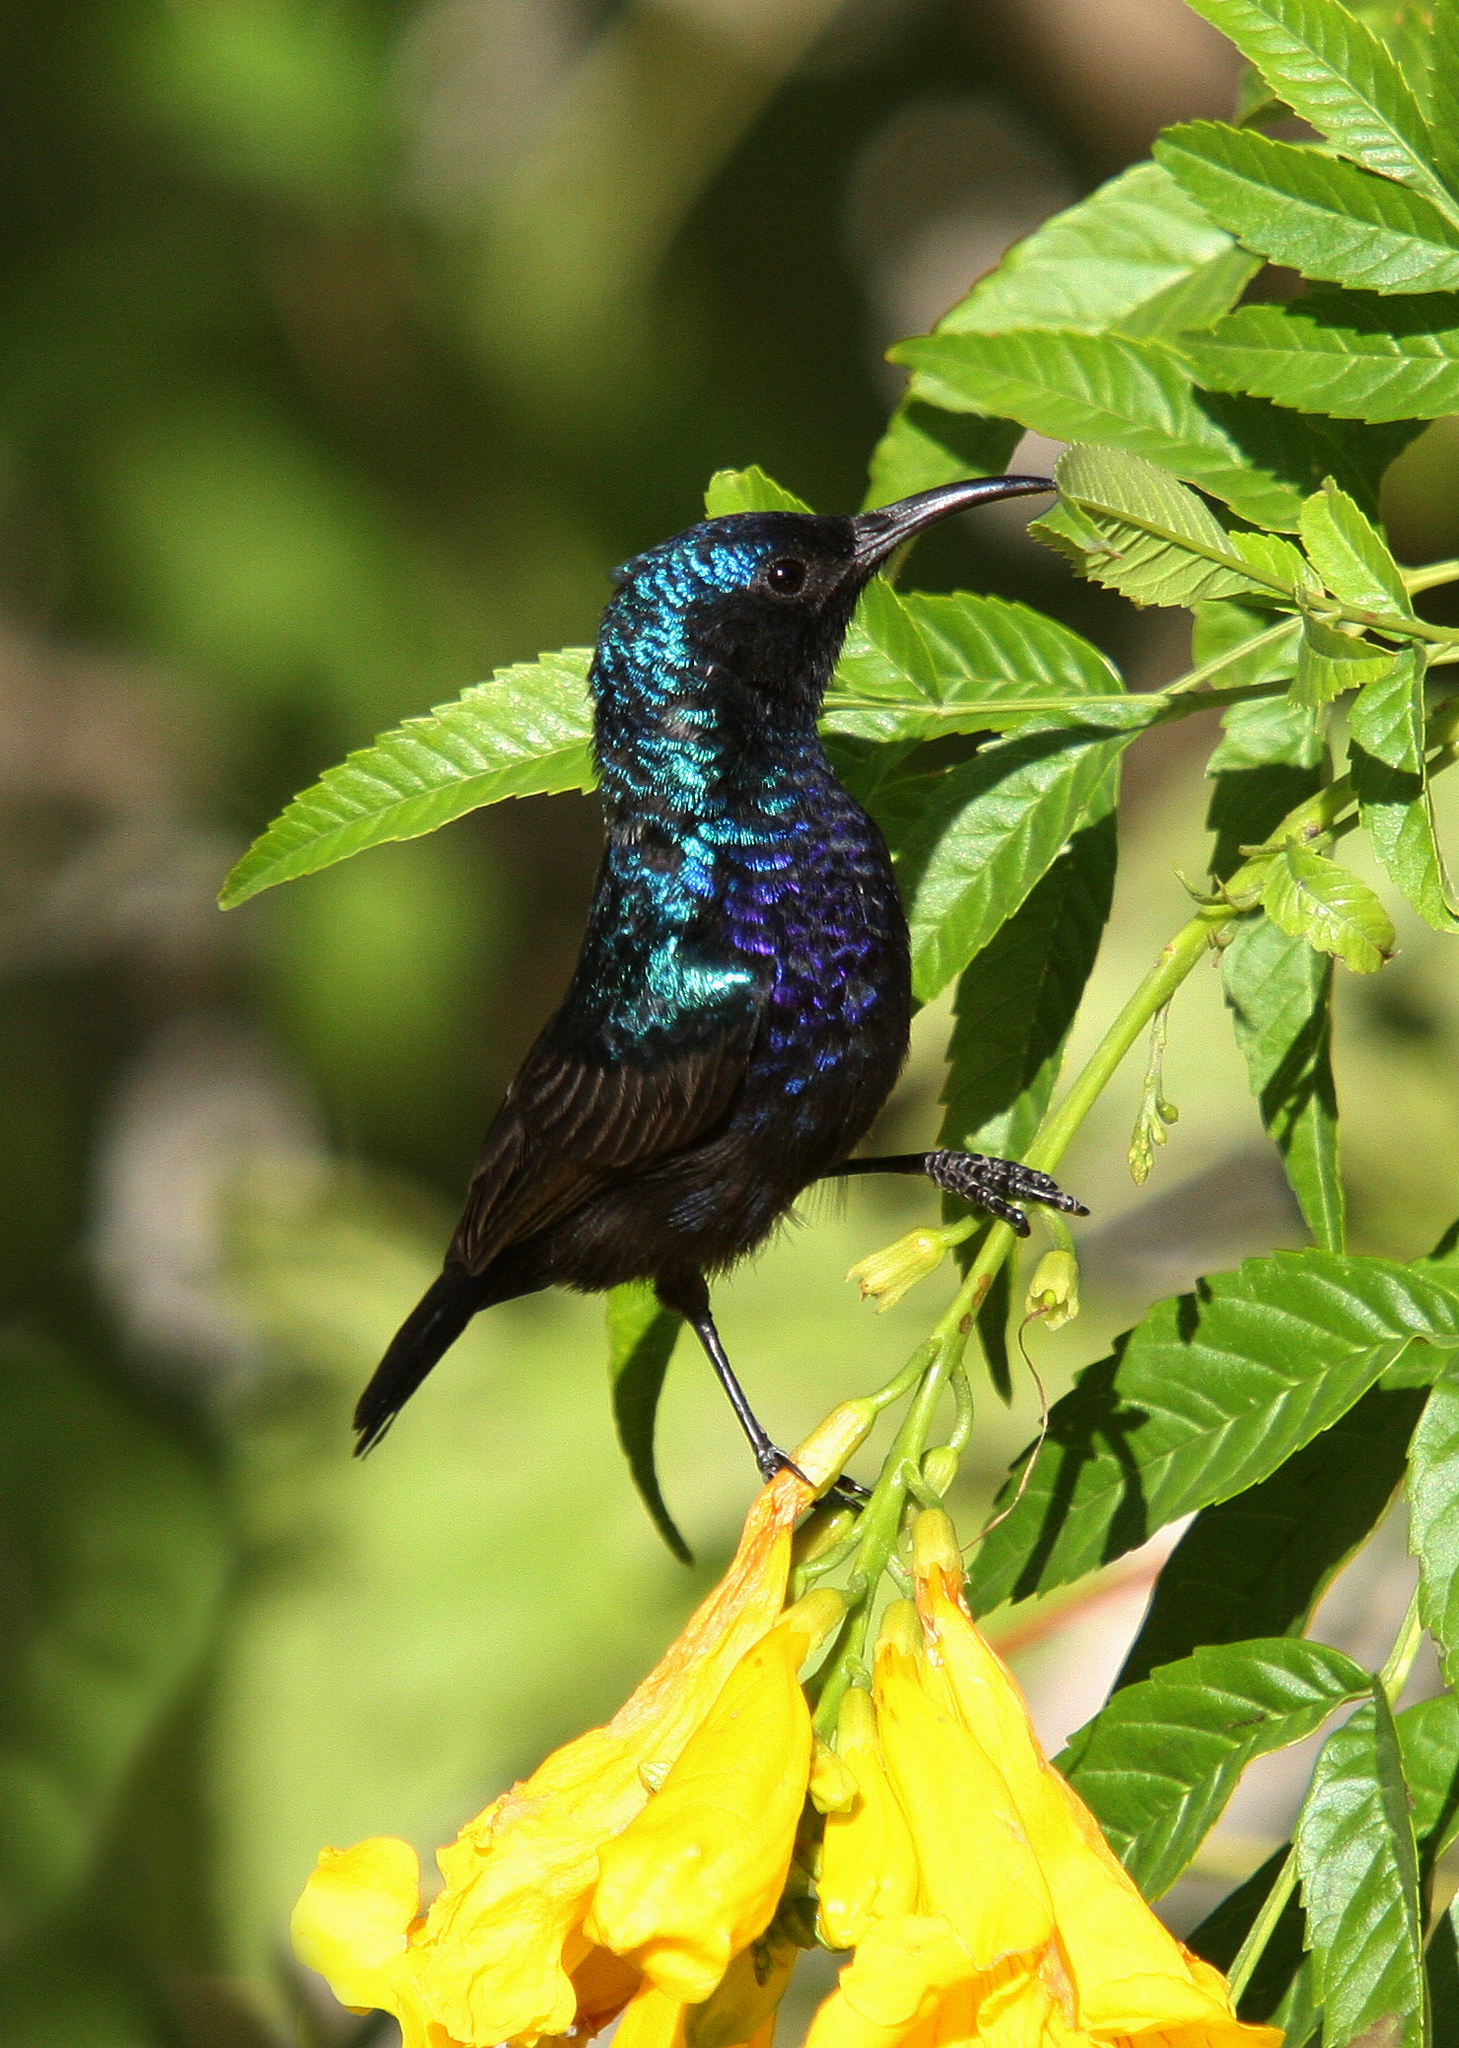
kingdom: Animalia
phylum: Chordata
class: Aves
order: Passeriformes
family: Nectariniidae
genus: Cinnyris
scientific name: Cinnyris osea
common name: Palestine sunbird
